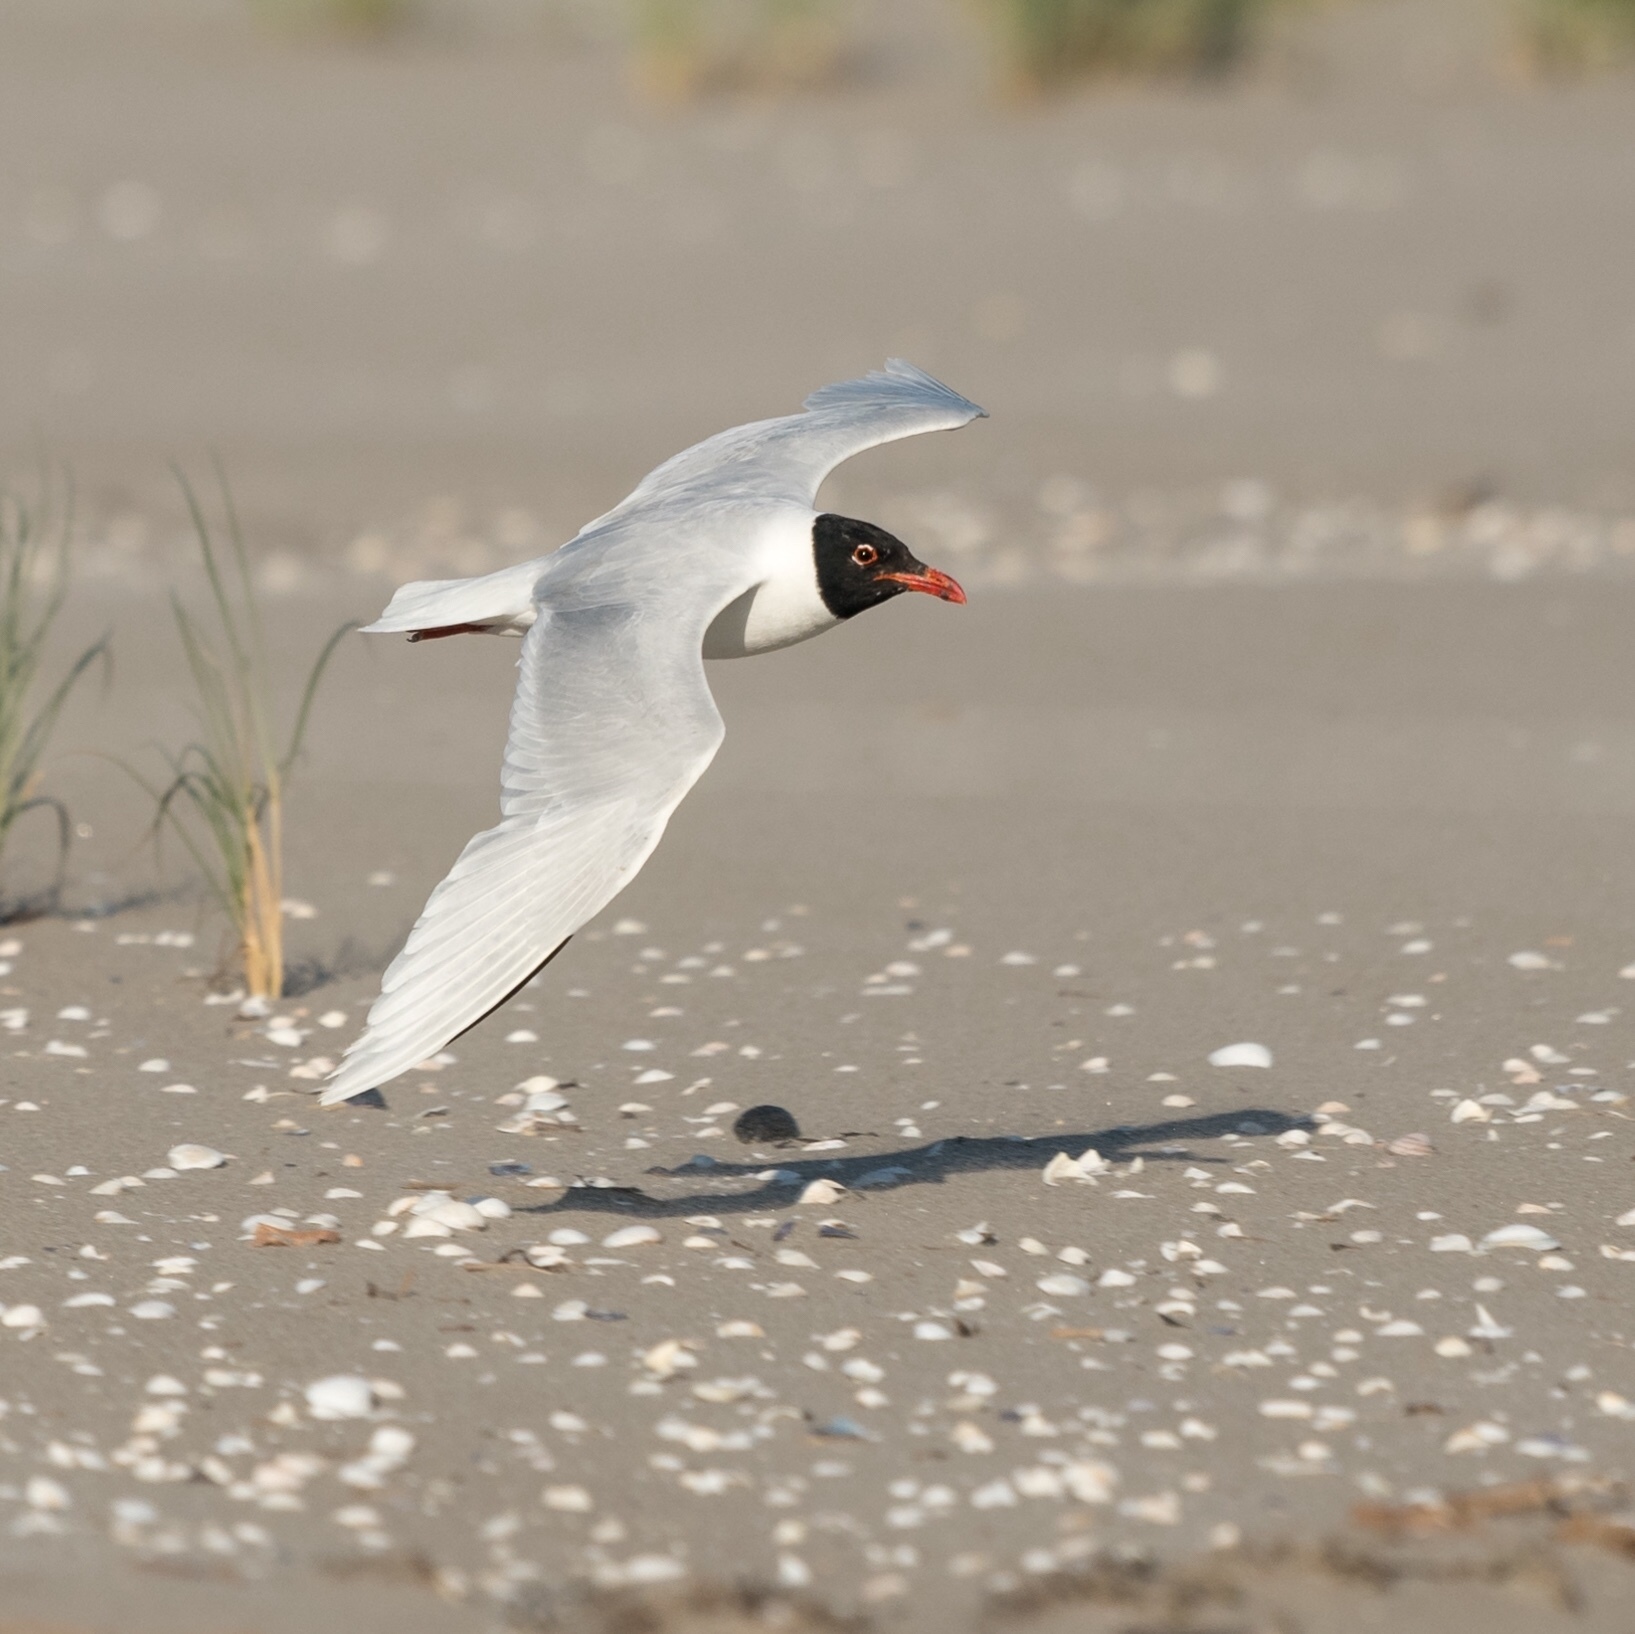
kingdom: Animalia
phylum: Chordata
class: Aves
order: Charadriiformes
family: Laridae
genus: Ichthyaetus
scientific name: Ichthyaetus melanocephalus
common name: Mediterranean gull
